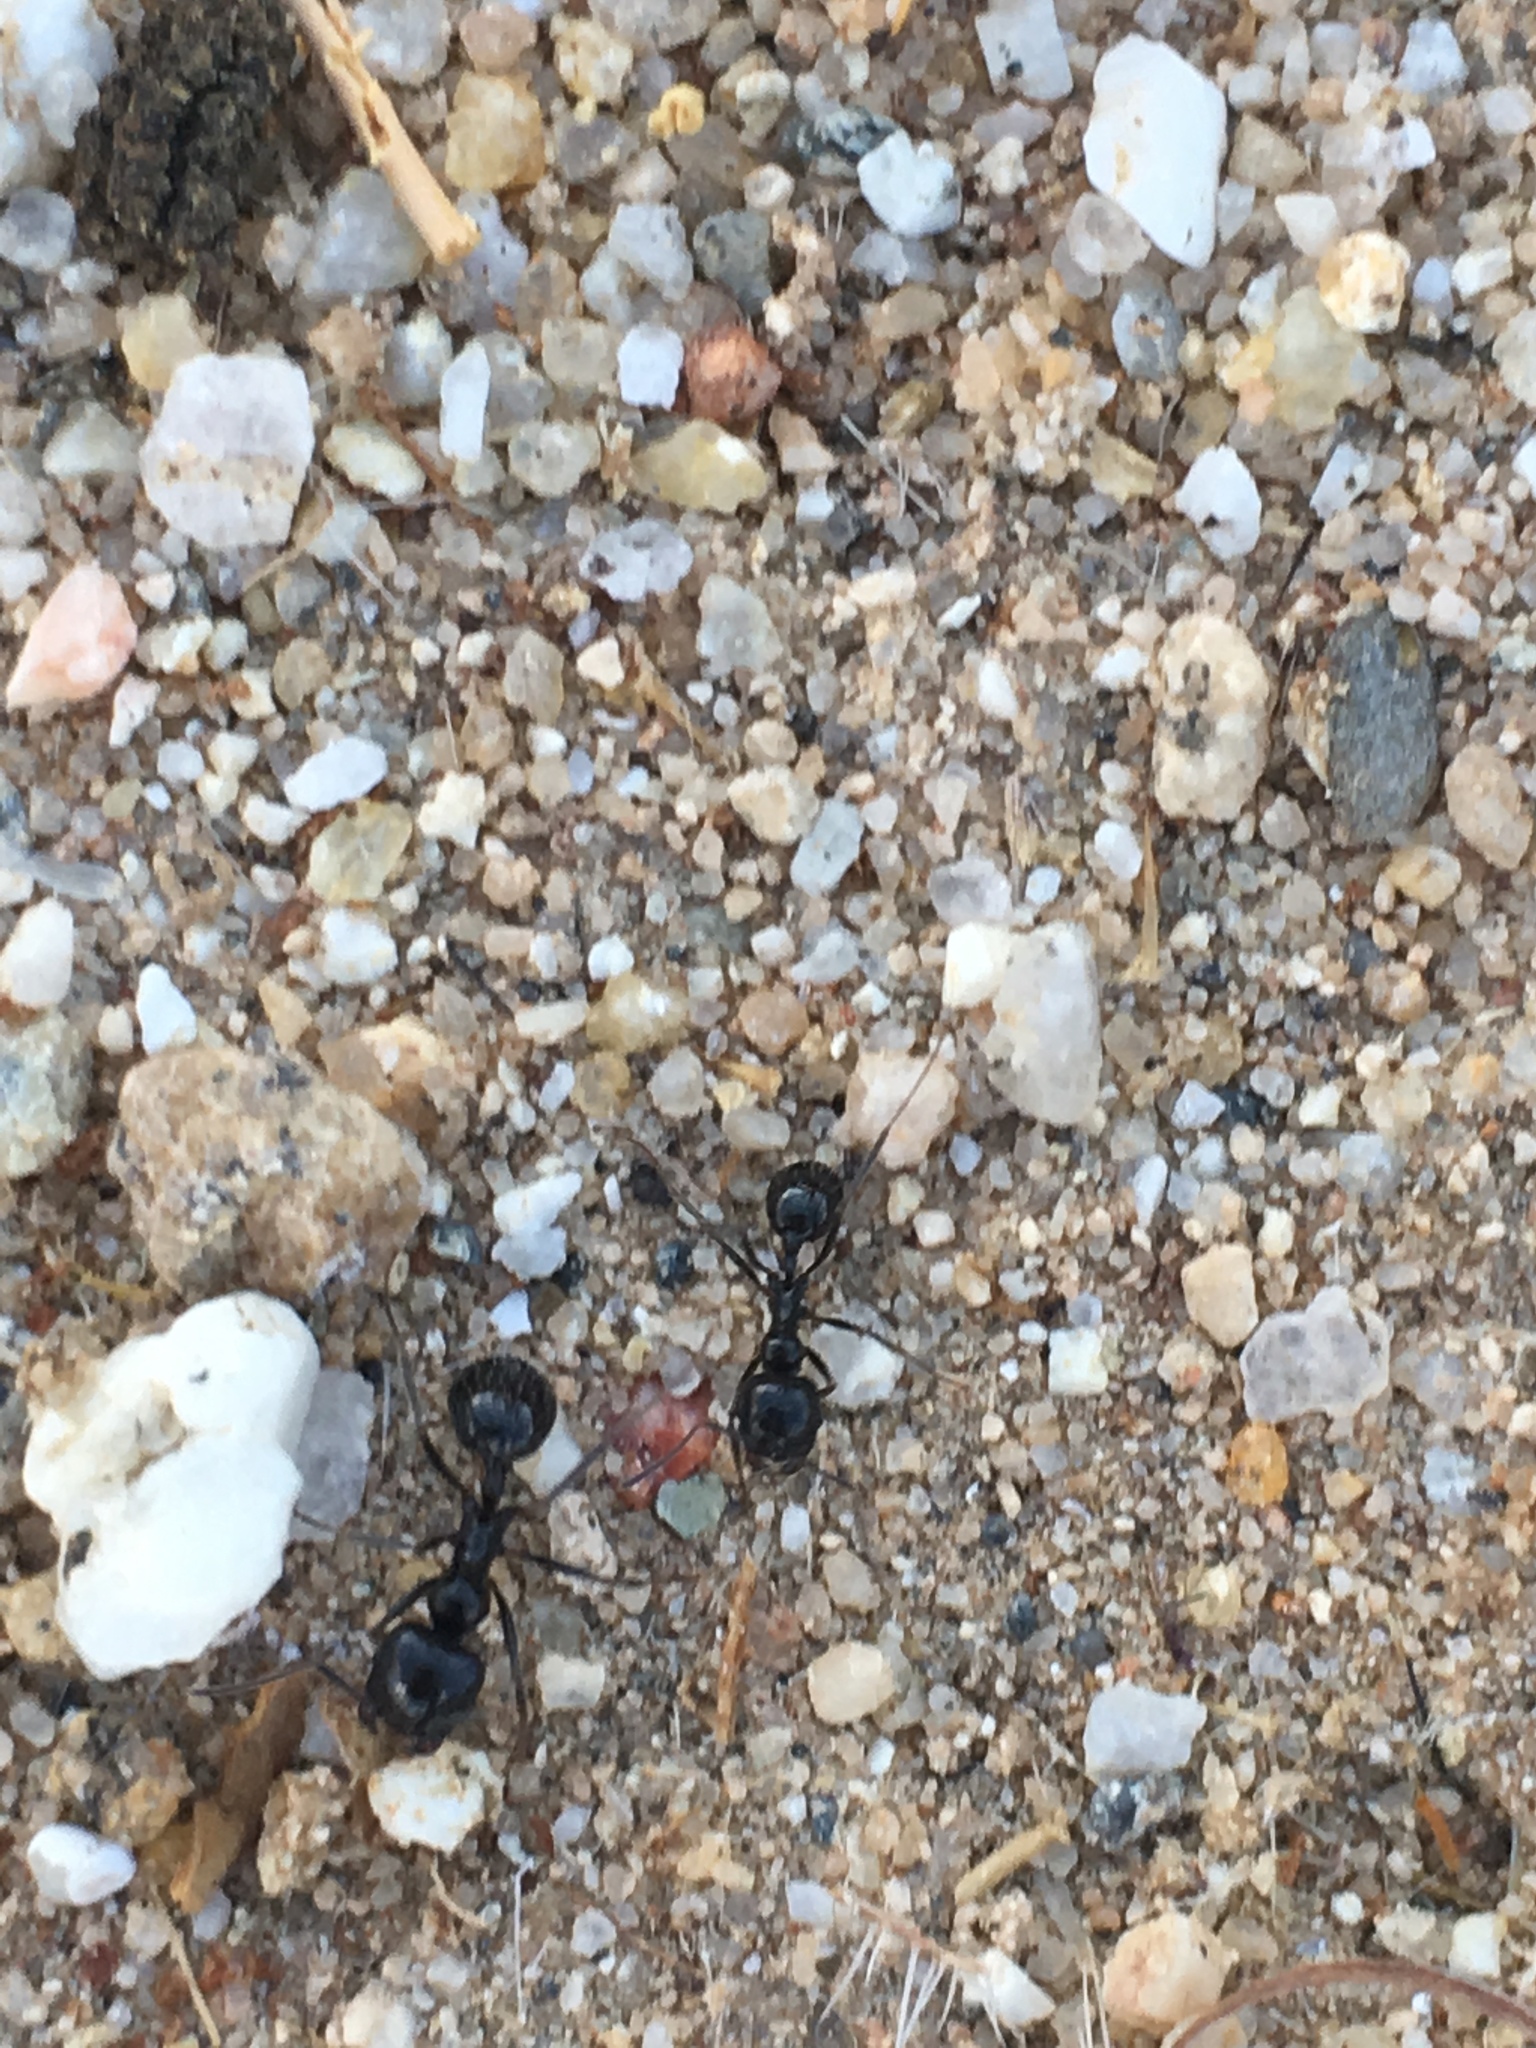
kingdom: Animalia
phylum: Arthropoda
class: Insecta
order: Hymenoptera
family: Formicidae
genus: Messor
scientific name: Messor pergandei
